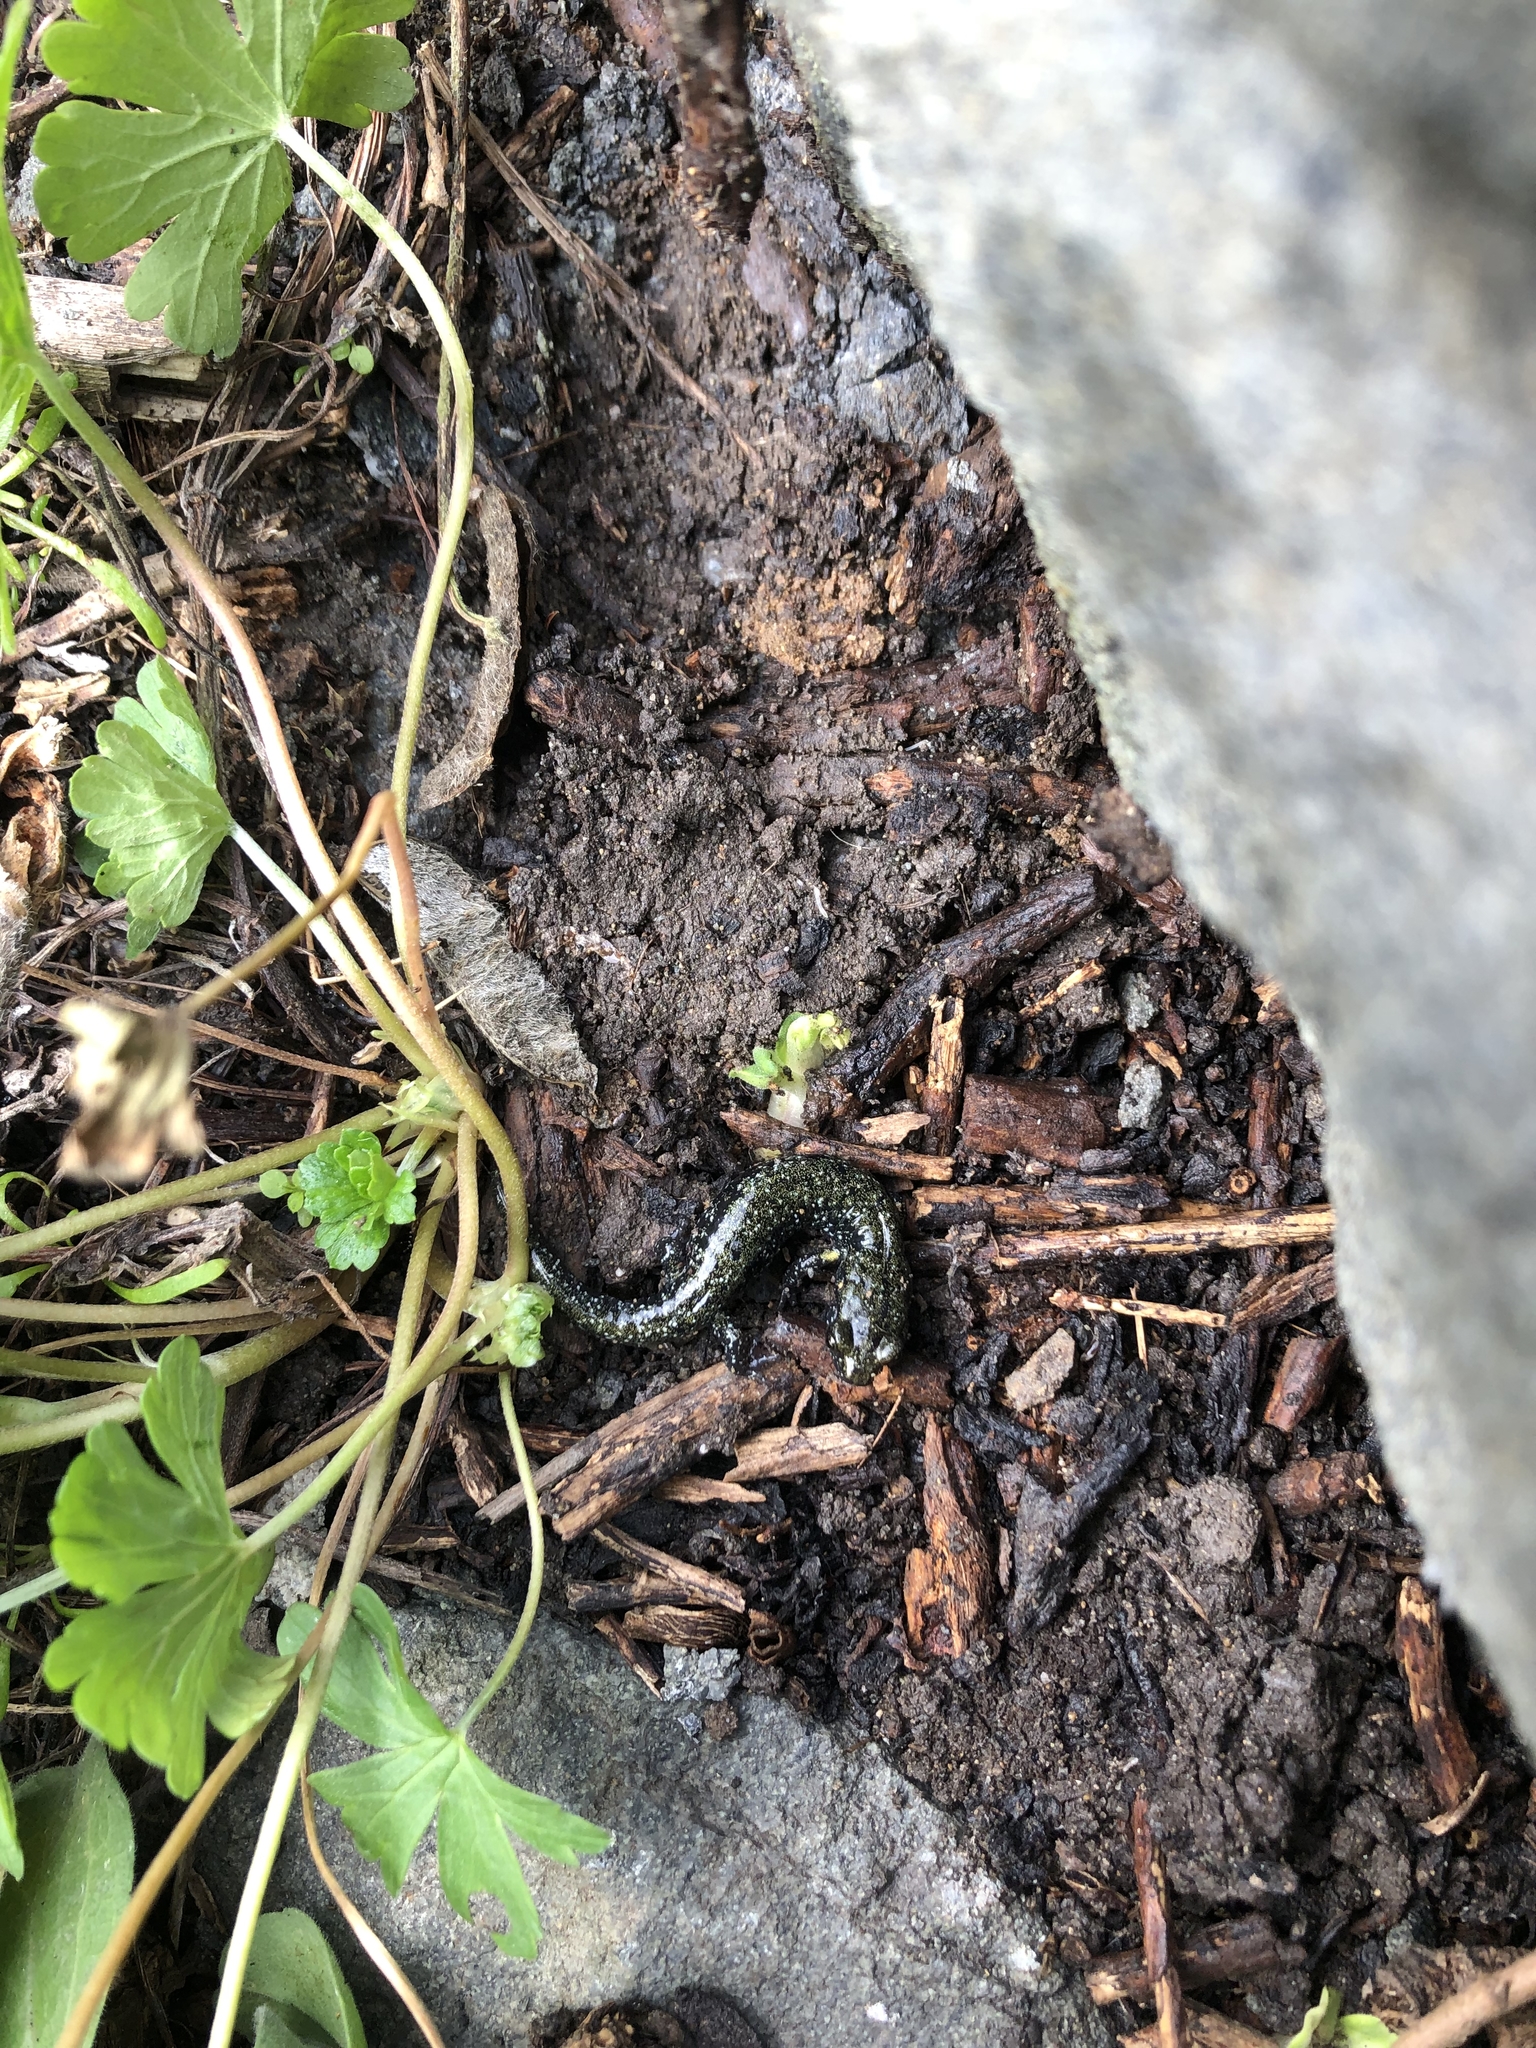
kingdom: Animalia
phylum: Chordata
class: Amphibia
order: Caudata
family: Plethodontidae
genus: Aneides
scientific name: Aneides flavipunctatus
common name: Black salamander
